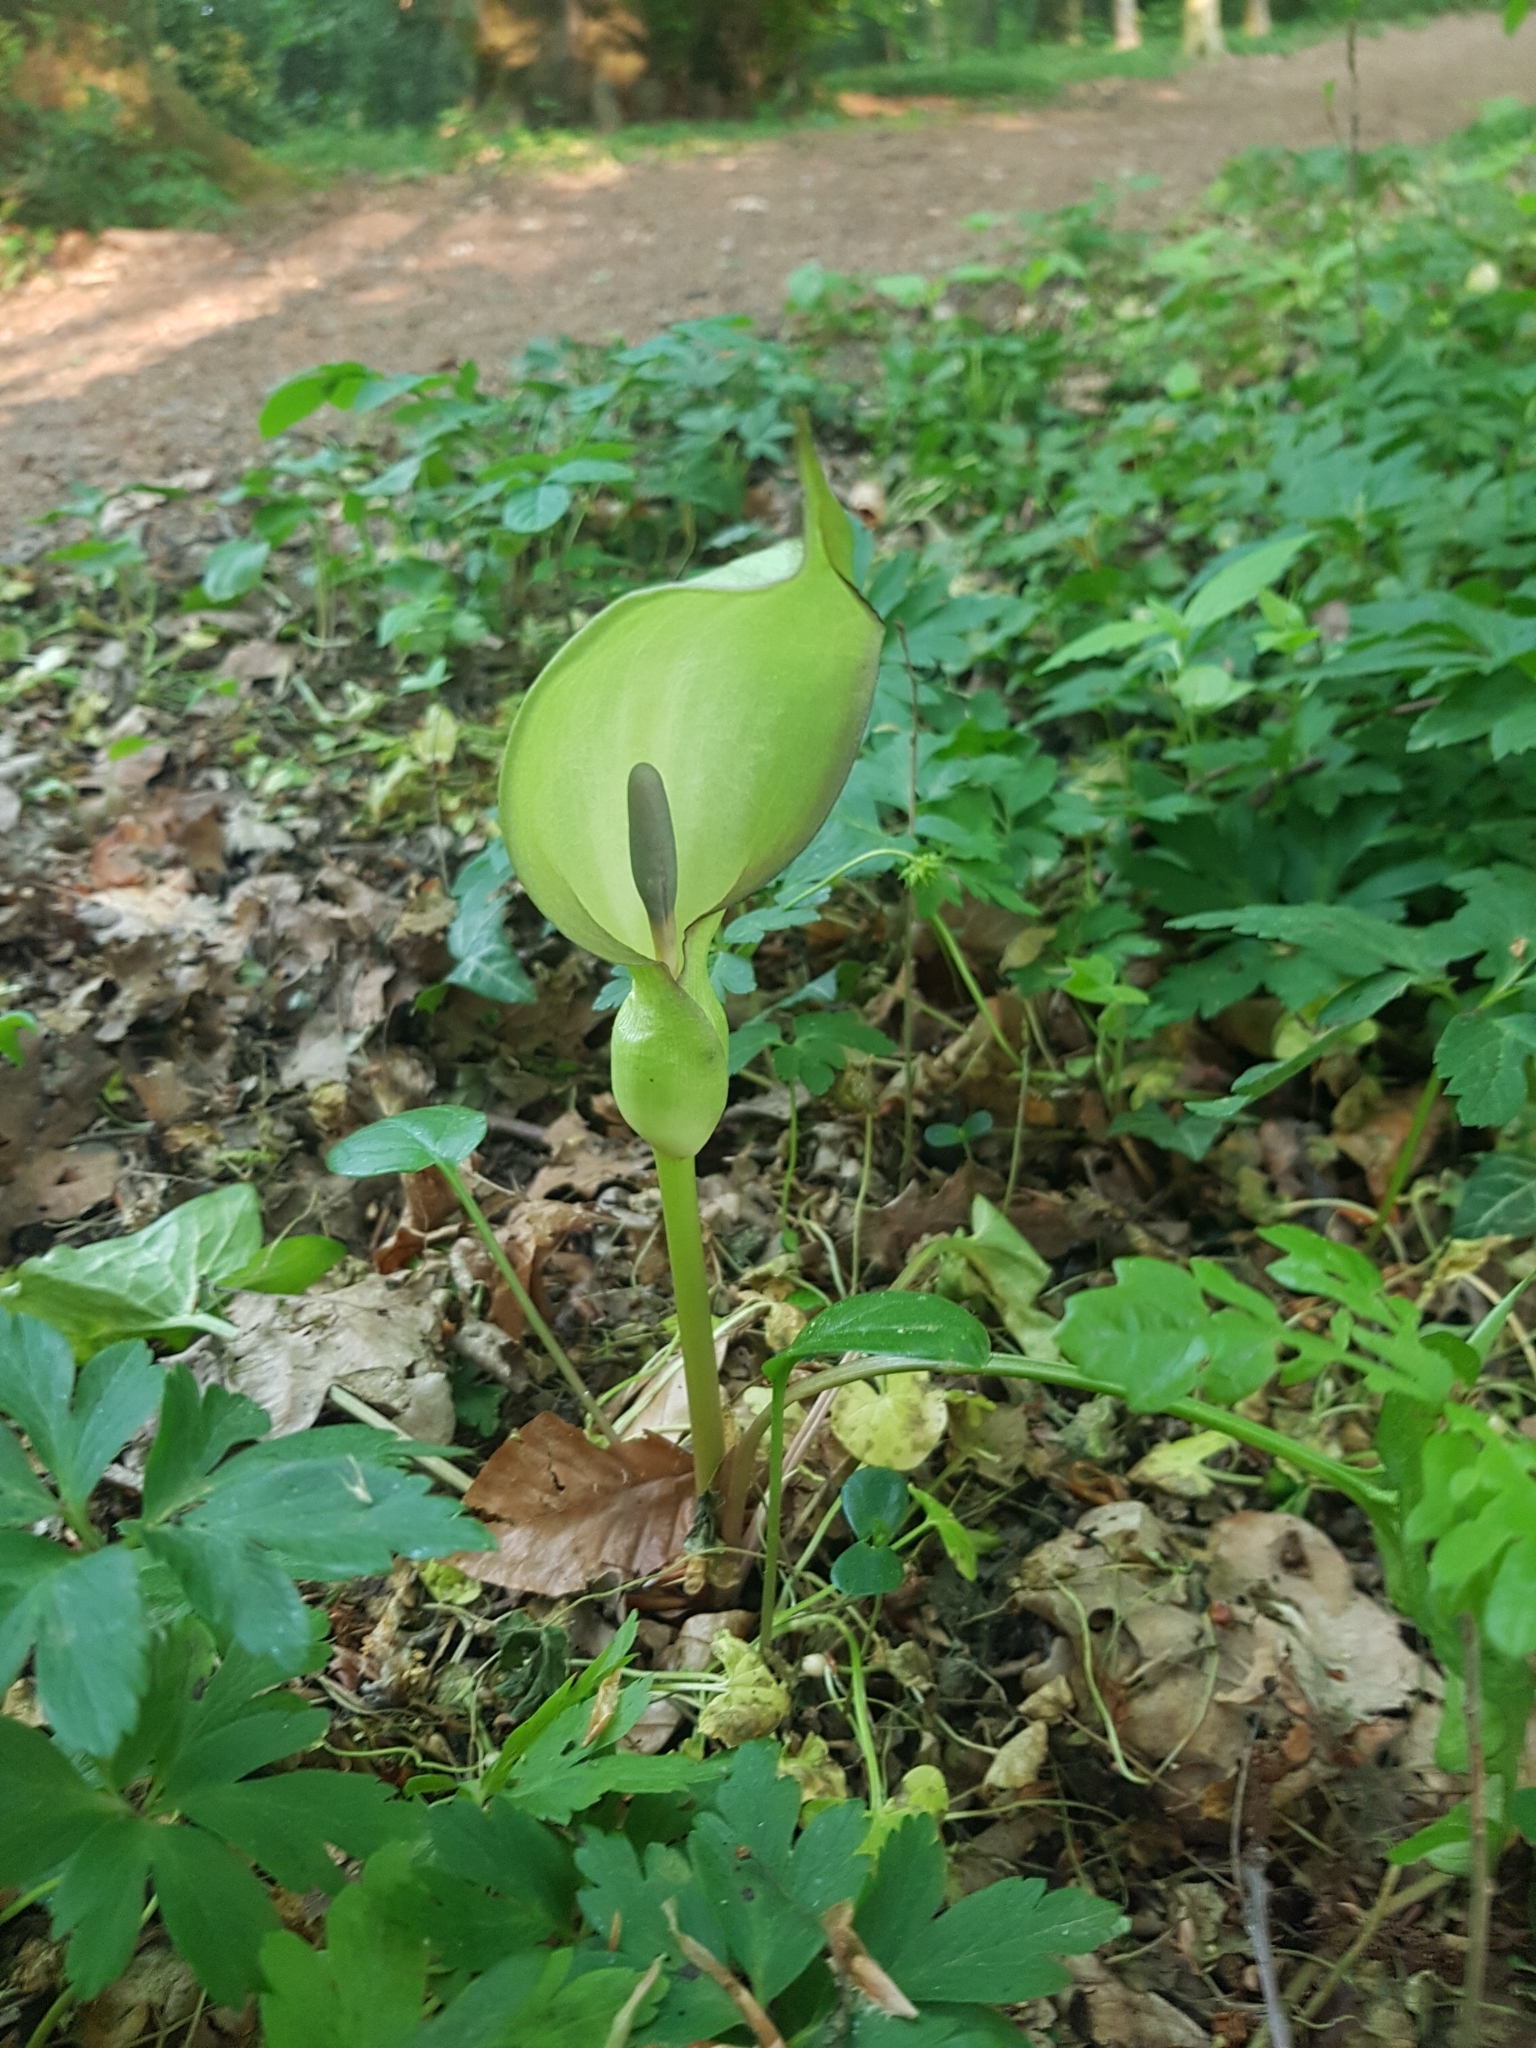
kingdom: Plantae
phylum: Tracheophyta
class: Liliopsida
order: Alismatales
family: Araceae
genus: Arum
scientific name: Arum maculatum
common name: Lords-and-ladies
